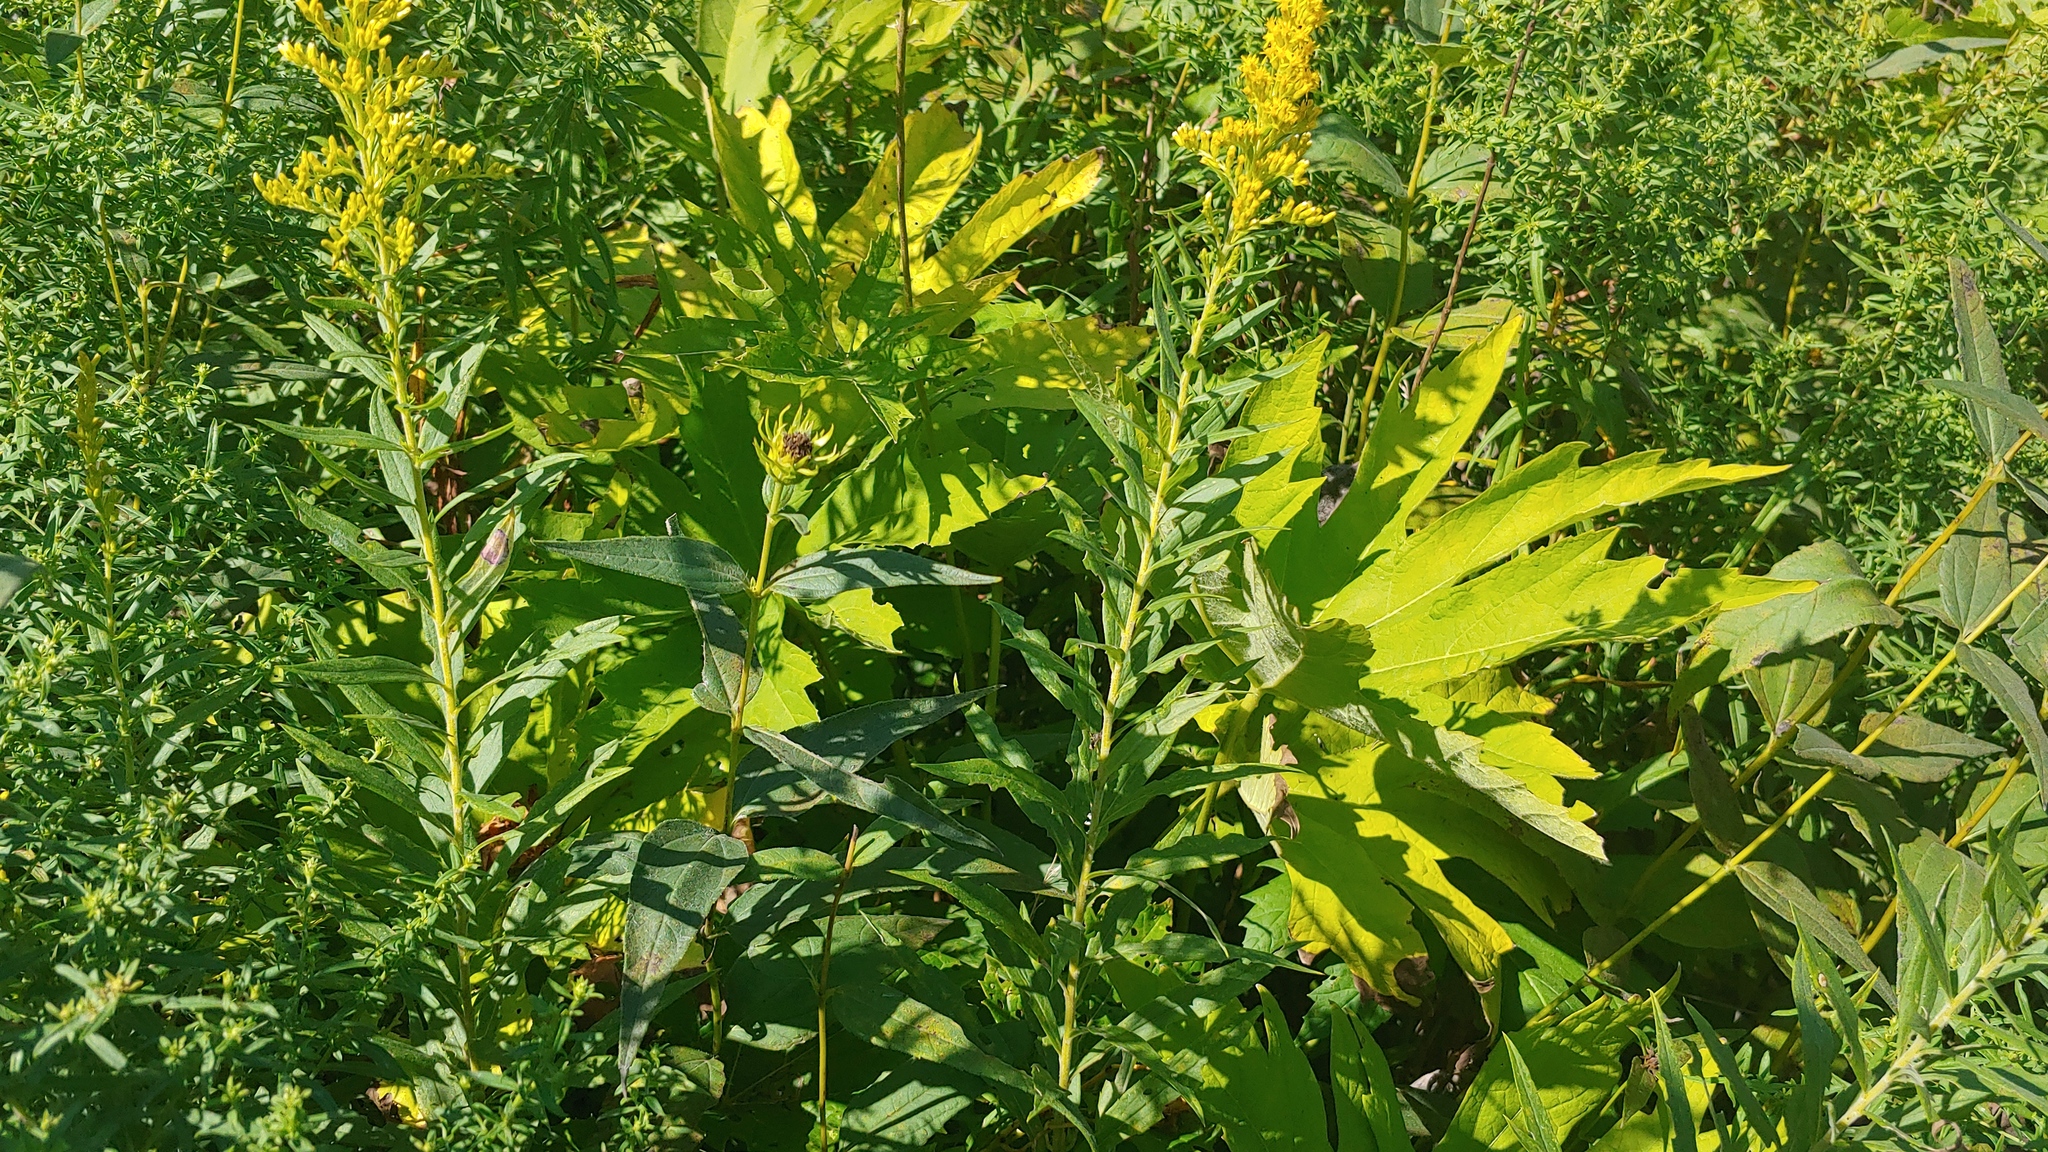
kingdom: Plantae
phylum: Tracheophyta
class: Magnoliopsida
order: Malvales
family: Malvaceae
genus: Napaea
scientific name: Napaea dioica
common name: Glade-mallow
